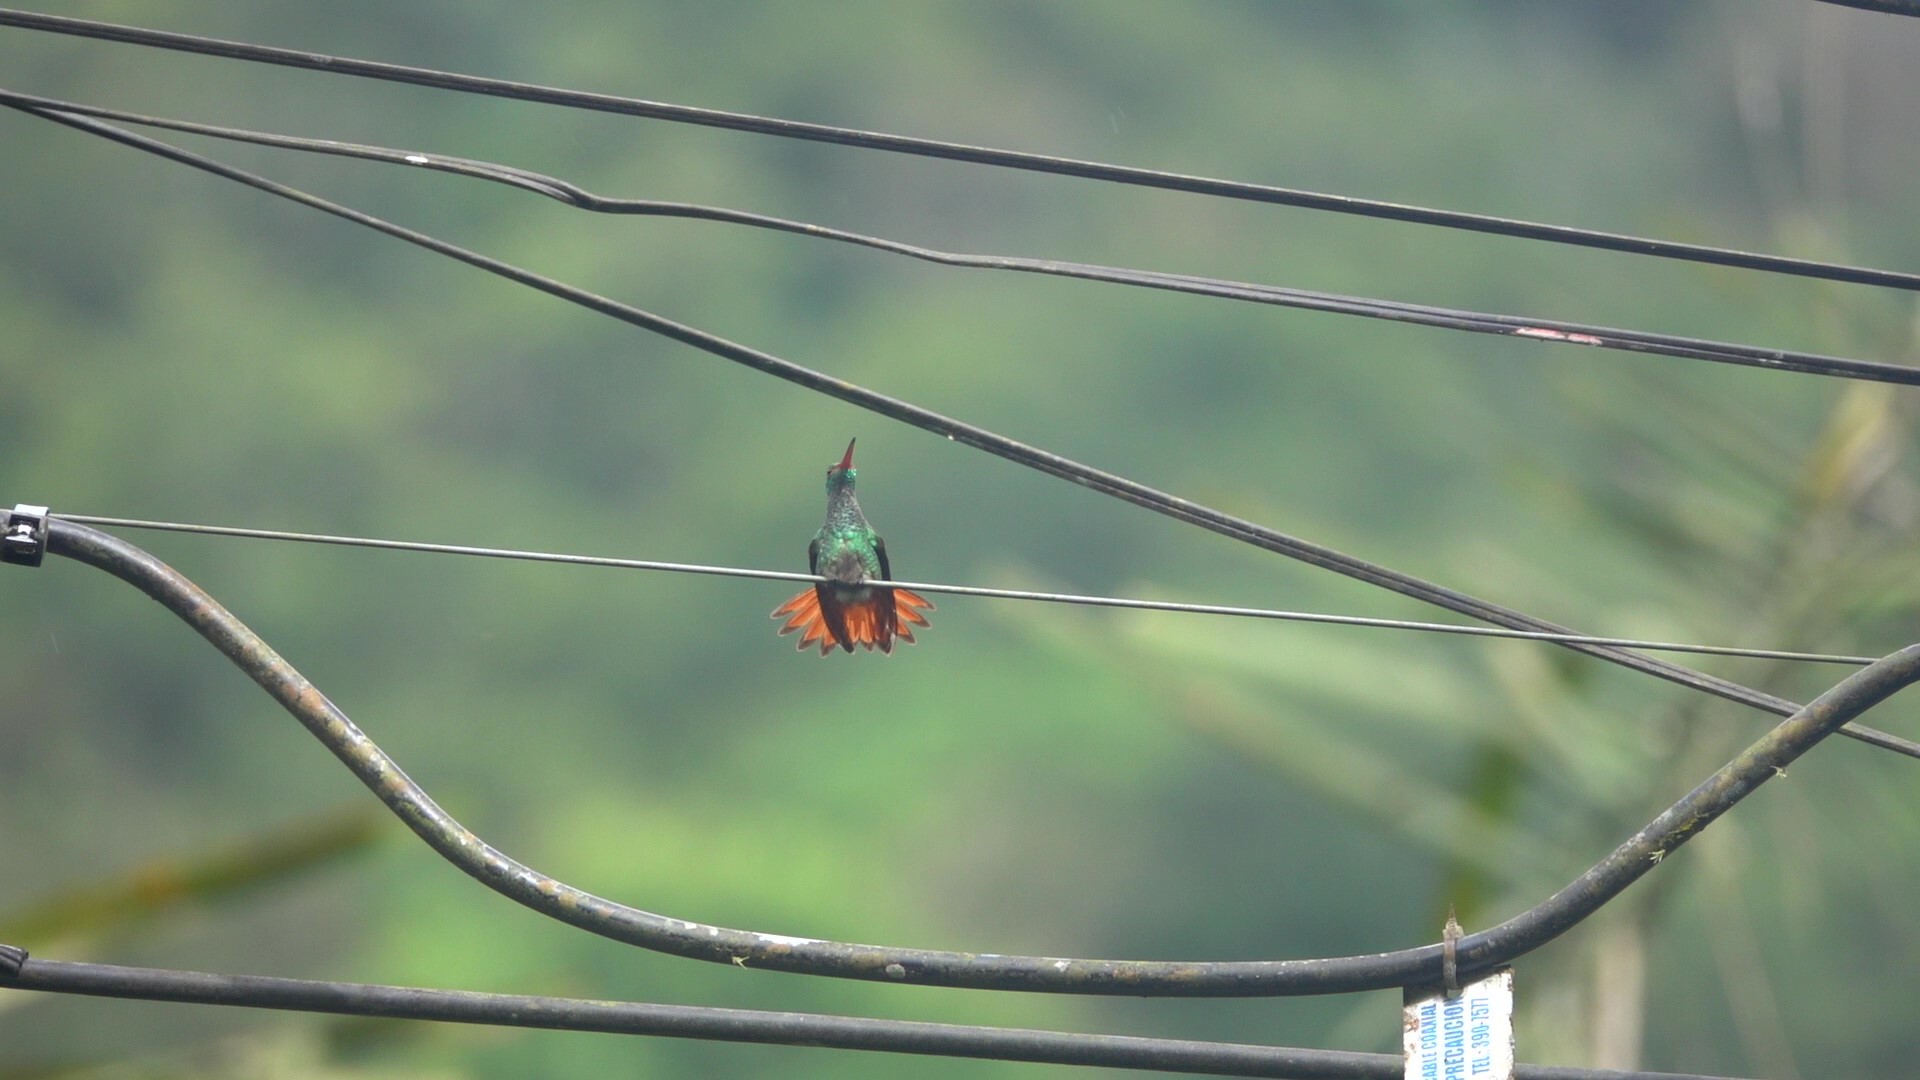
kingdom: Animalia
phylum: Chordata
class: Aves
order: Apodiformes
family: Trochilidae
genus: Amazilia
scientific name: Amazilia tzacatl
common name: Rufous-tailed hummingbird
